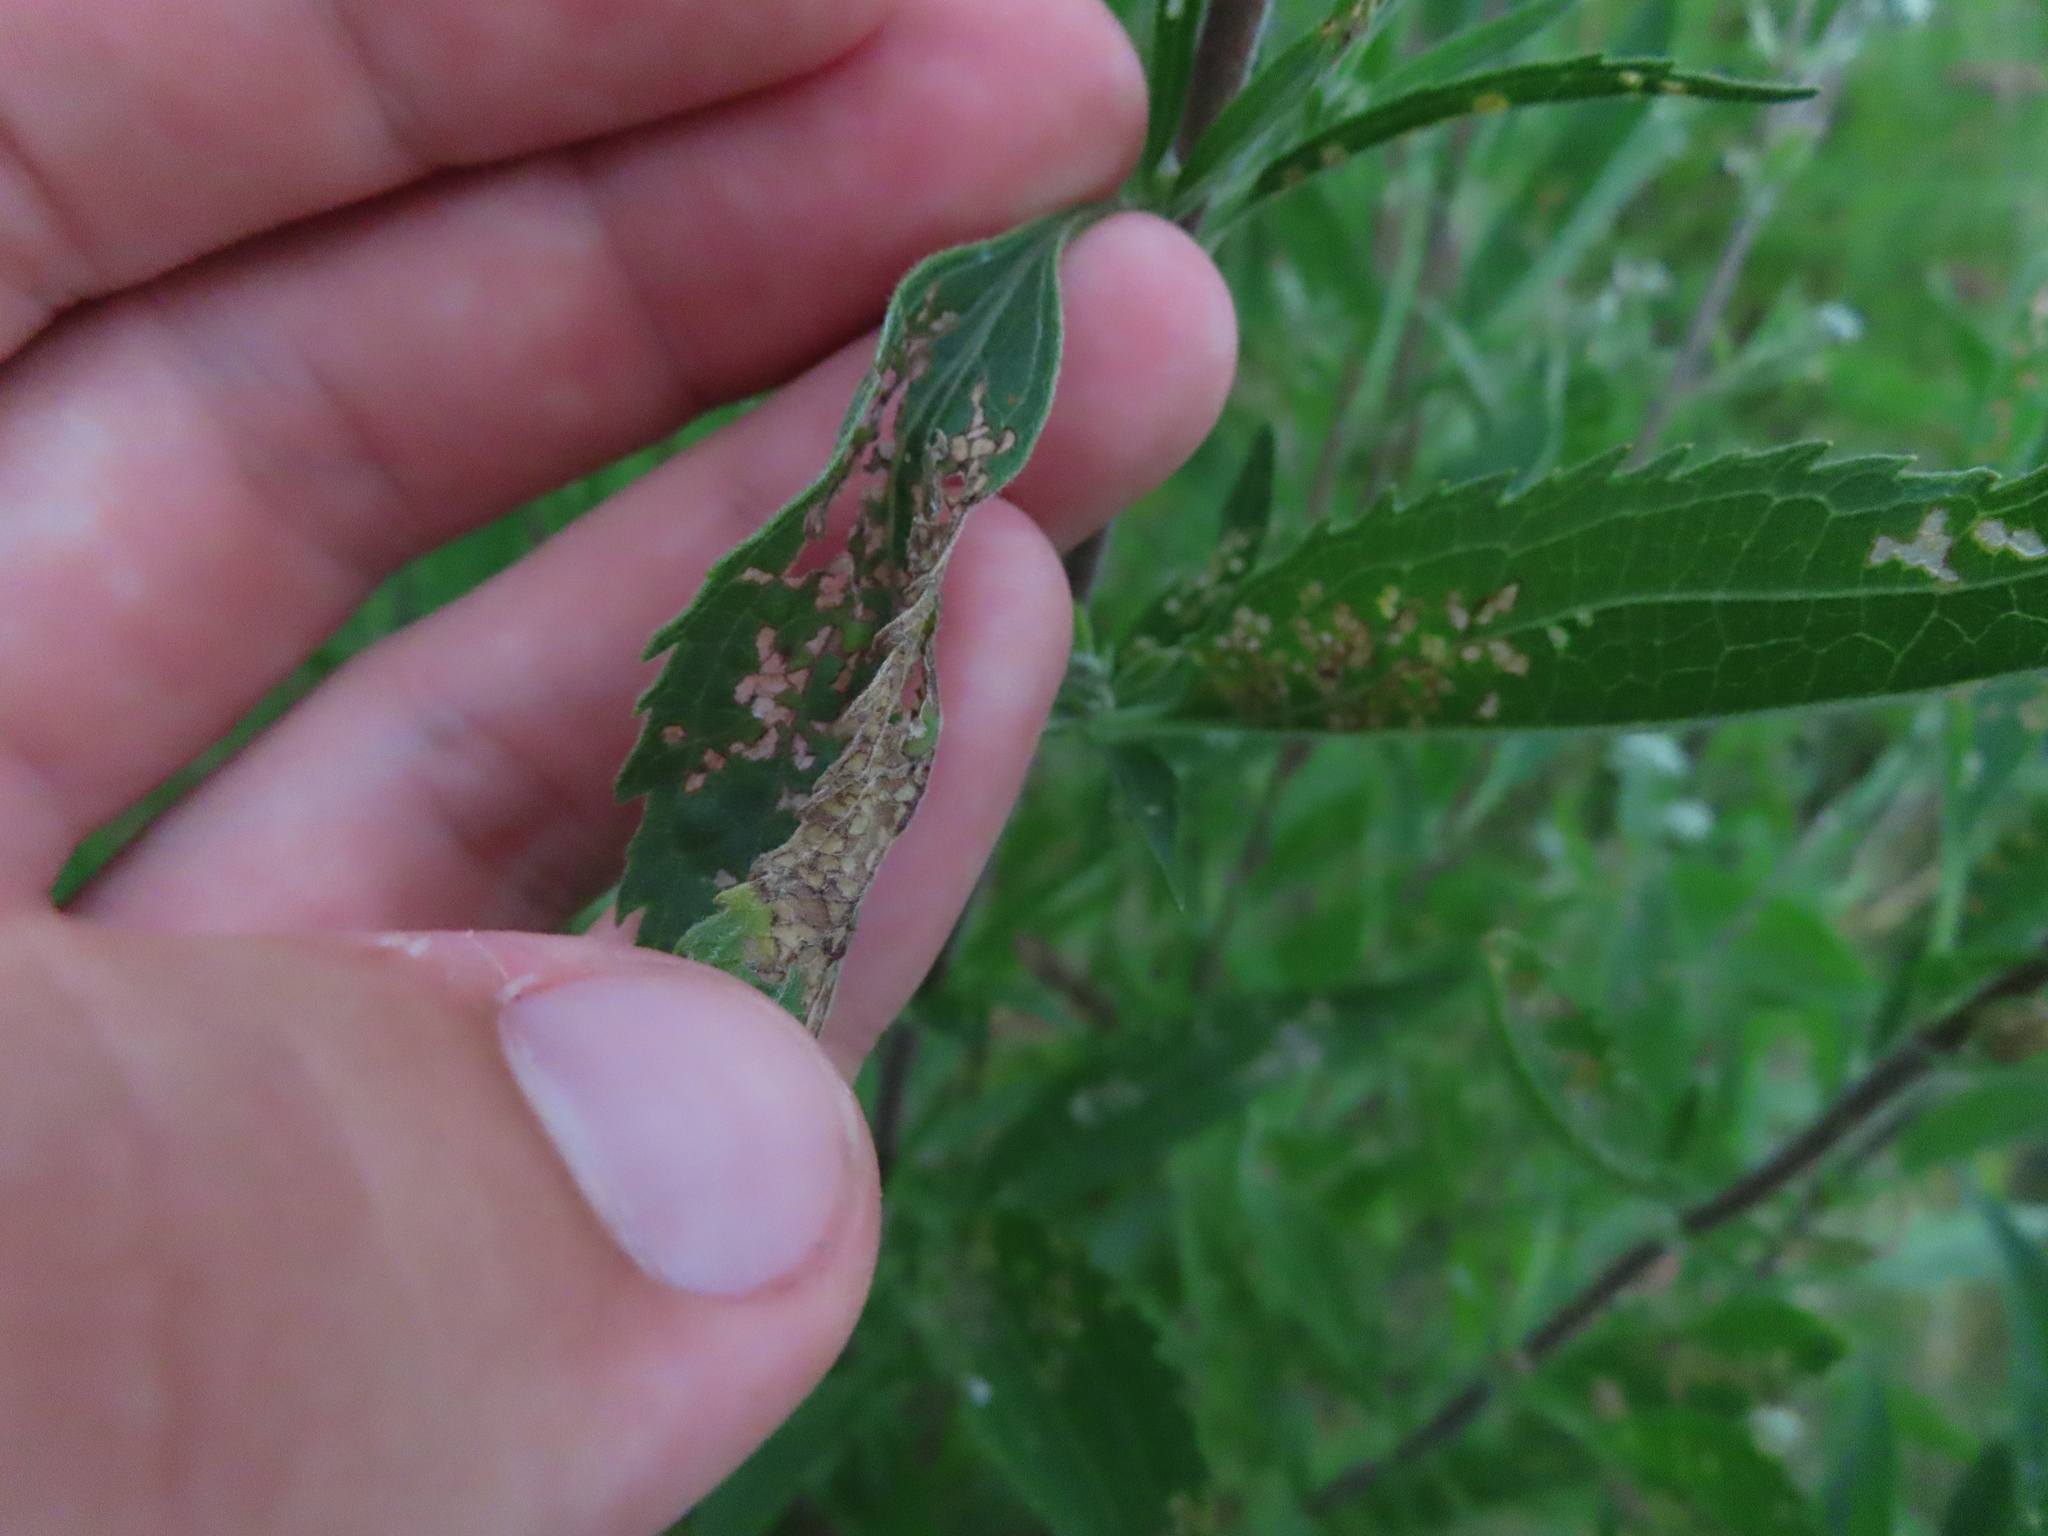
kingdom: Plantae
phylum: Tracheophyta
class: Magnoliopsida
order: Asterales
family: Asteraceae
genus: Eupatorium
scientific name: Eupatorium altissimum
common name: Tall thoroughwort
